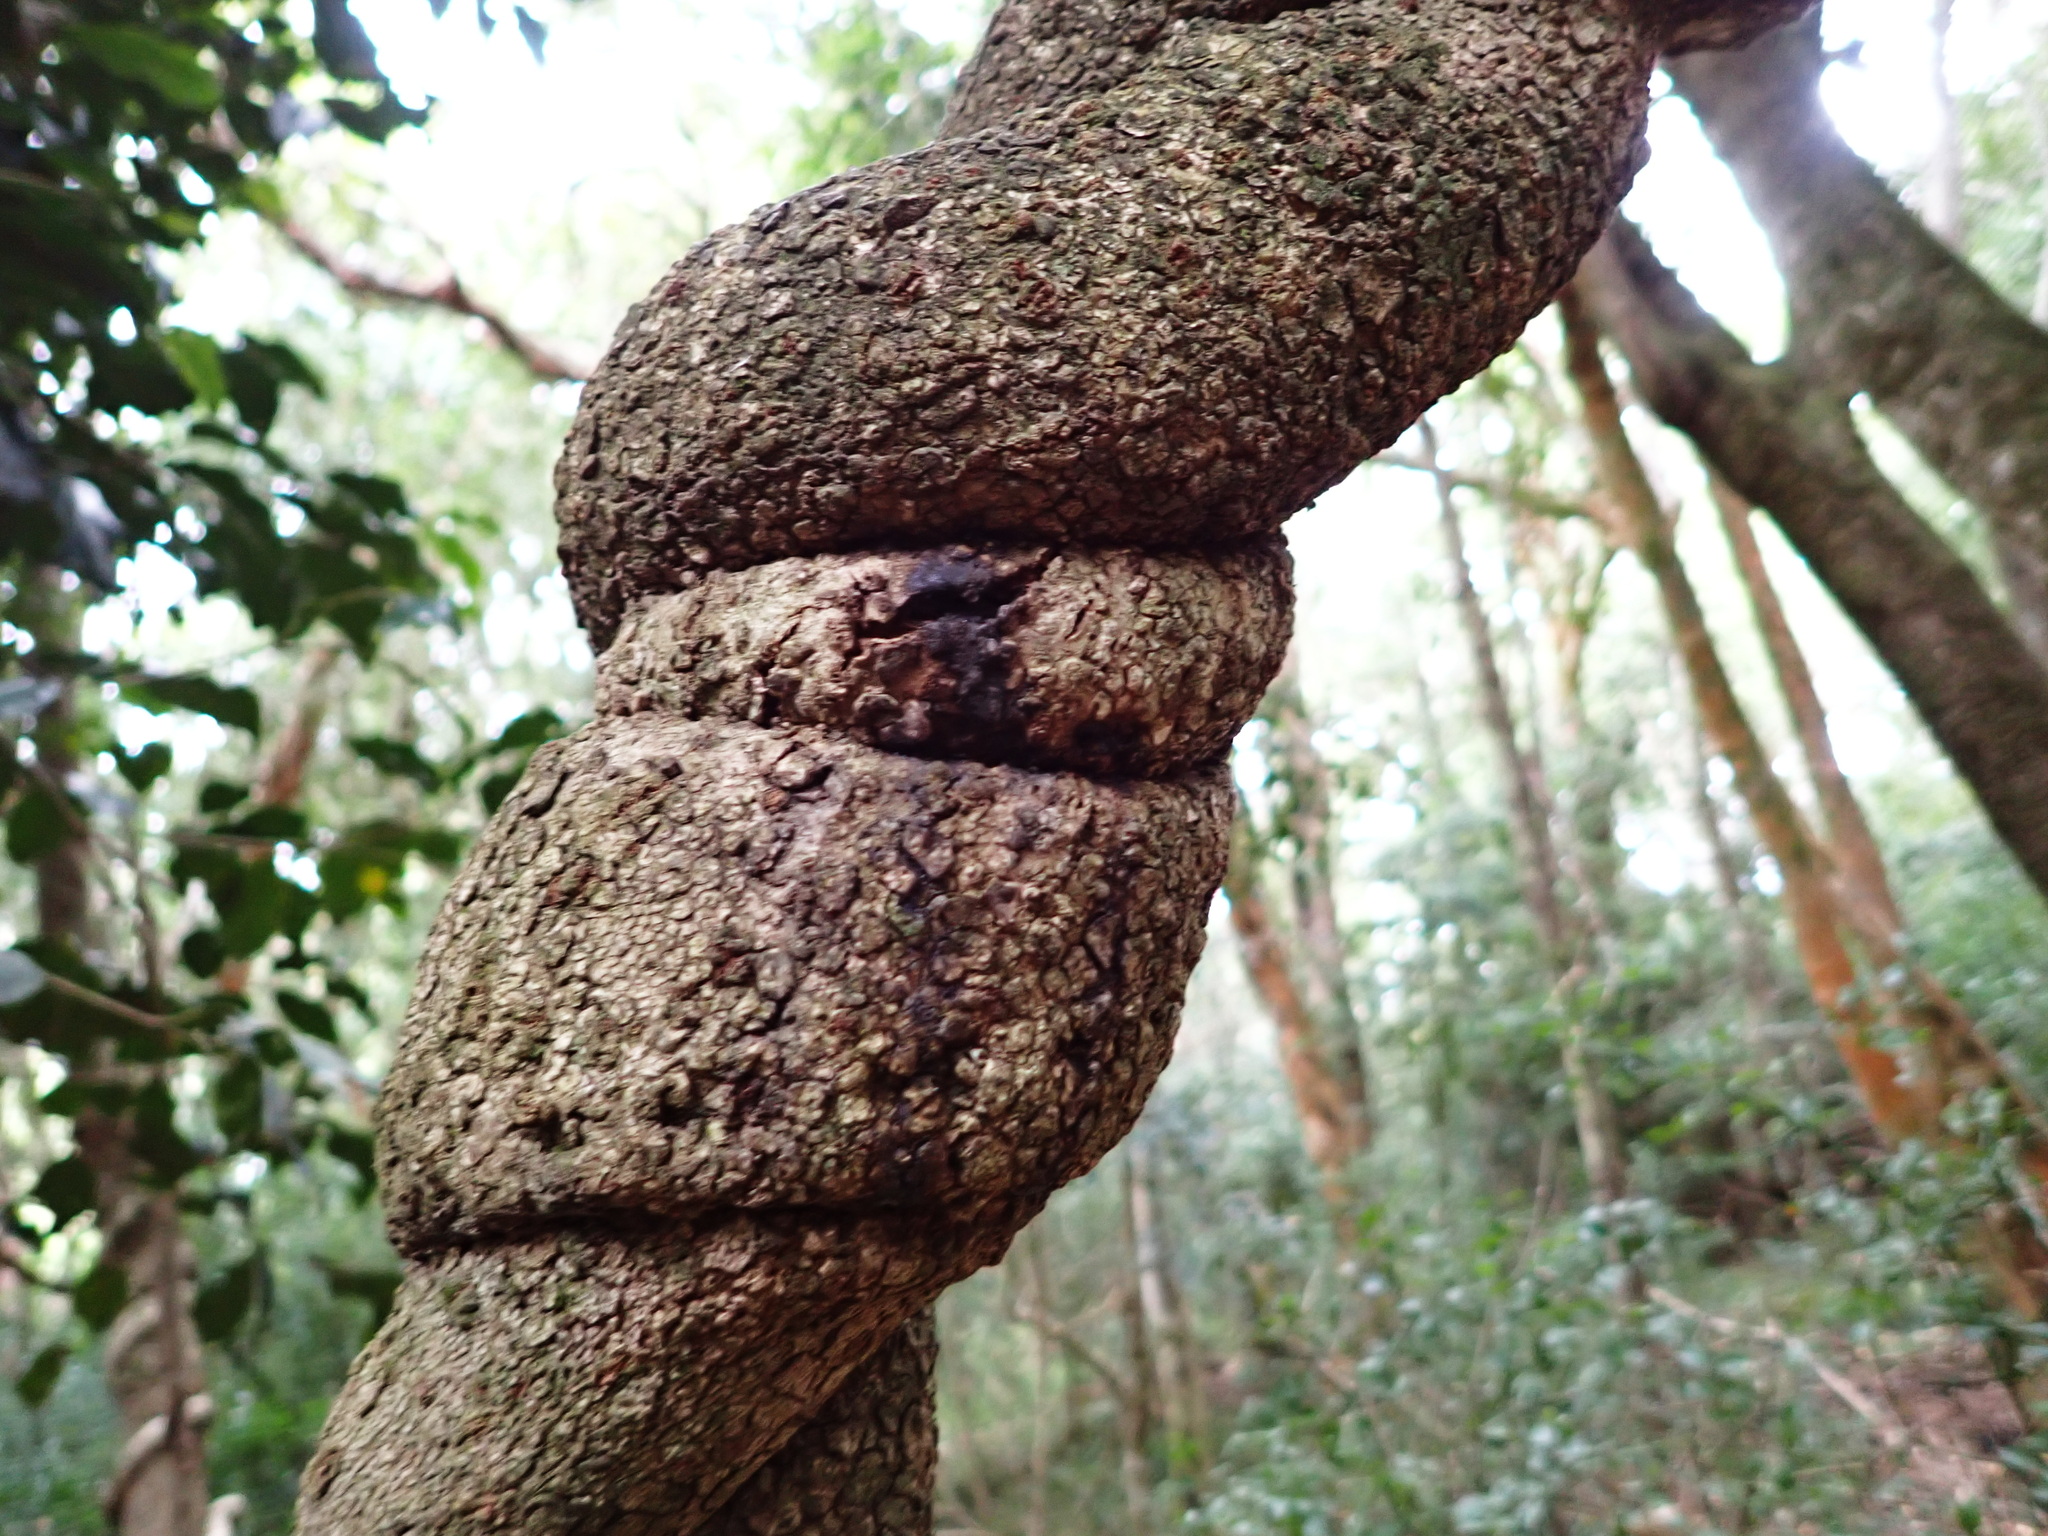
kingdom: Plantae
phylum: Tracheophyta
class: Magnoliopsida
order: Gentianales
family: Apocynaceae
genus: Secamone
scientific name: Secamone alpini
